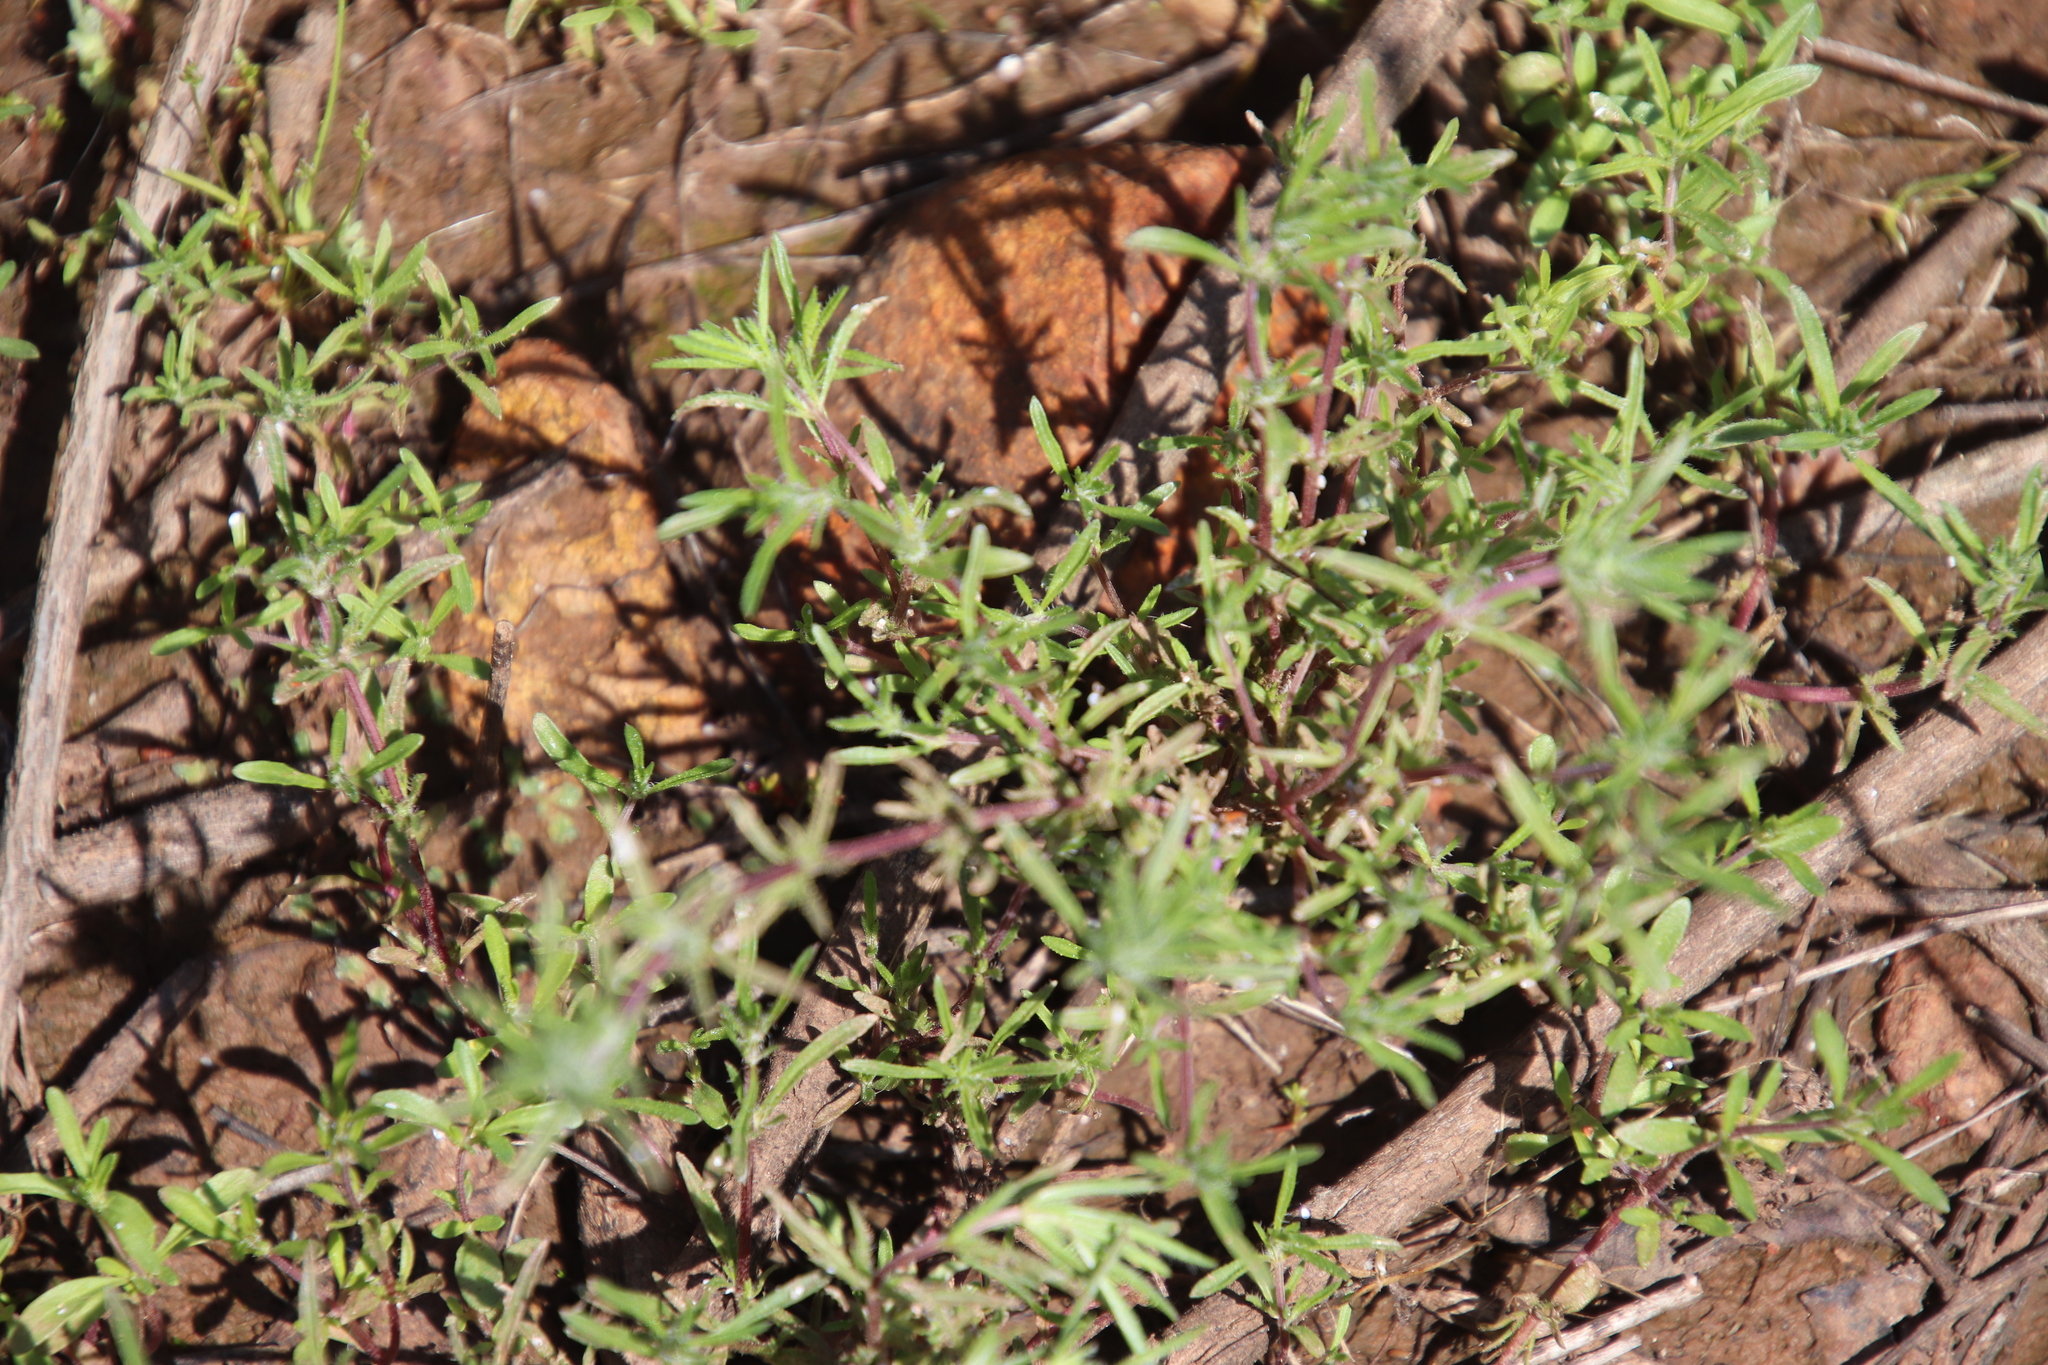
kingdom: Plantae
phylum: Tracheophyta
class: Magnoliopsida
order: Lamiales
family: Lamiaceae
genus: Pogogyne
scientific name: Pogogyne abramsii
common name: San diego mesa-mint
